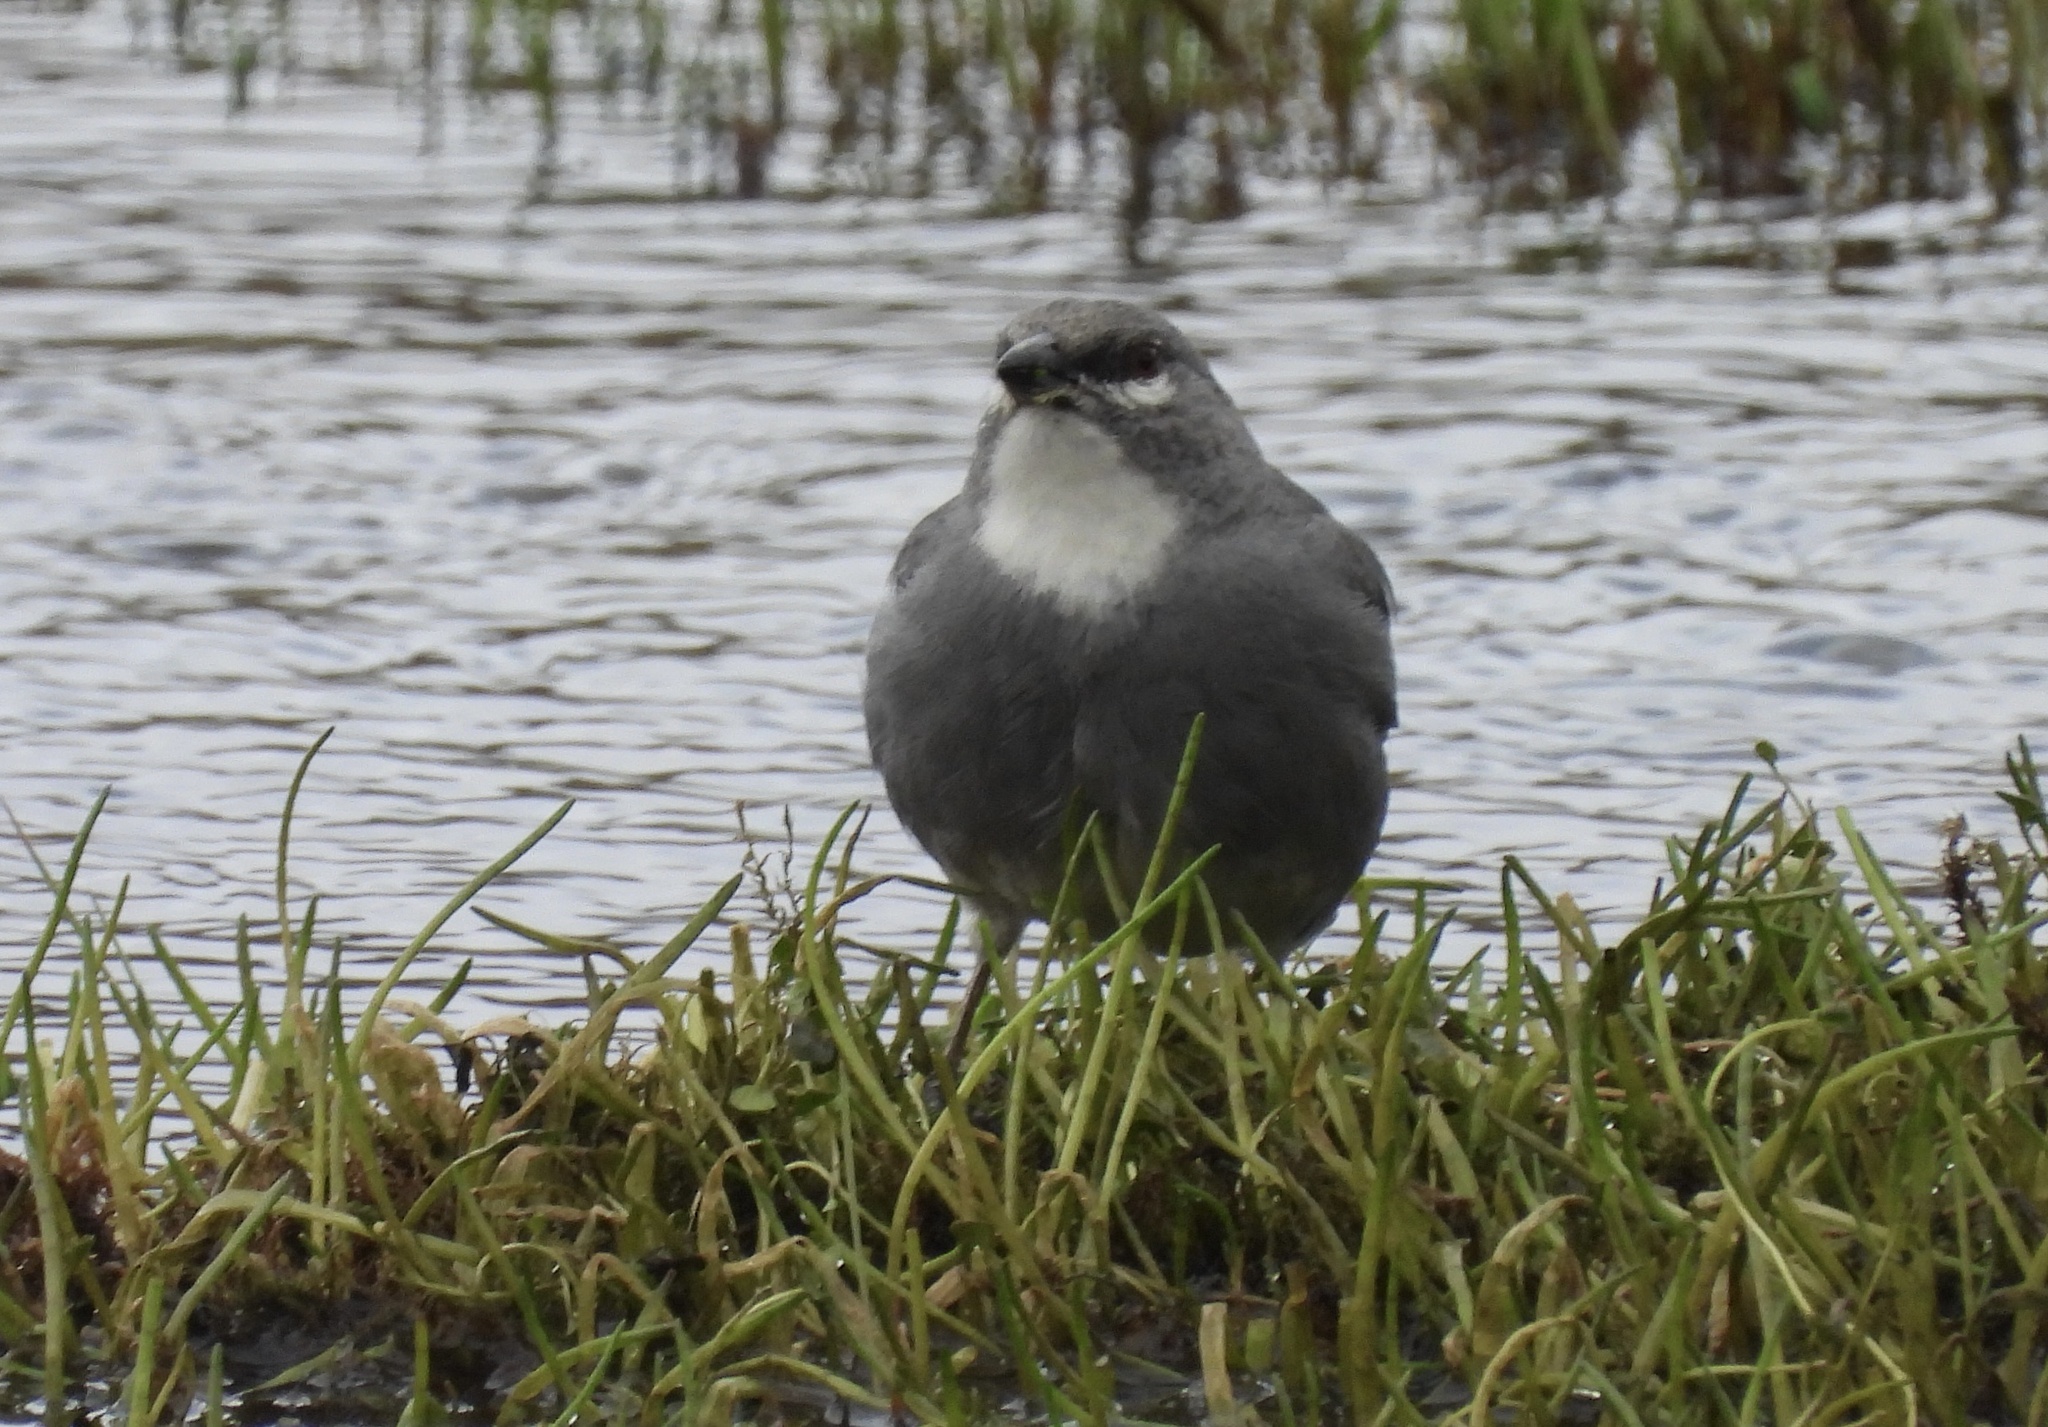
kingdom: Animalia
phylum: Chordata
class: Aves
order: Passeriformes
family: Thraupidae
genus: Idiopsar
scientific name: Idiopsar speculifer
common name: Glacier finch
